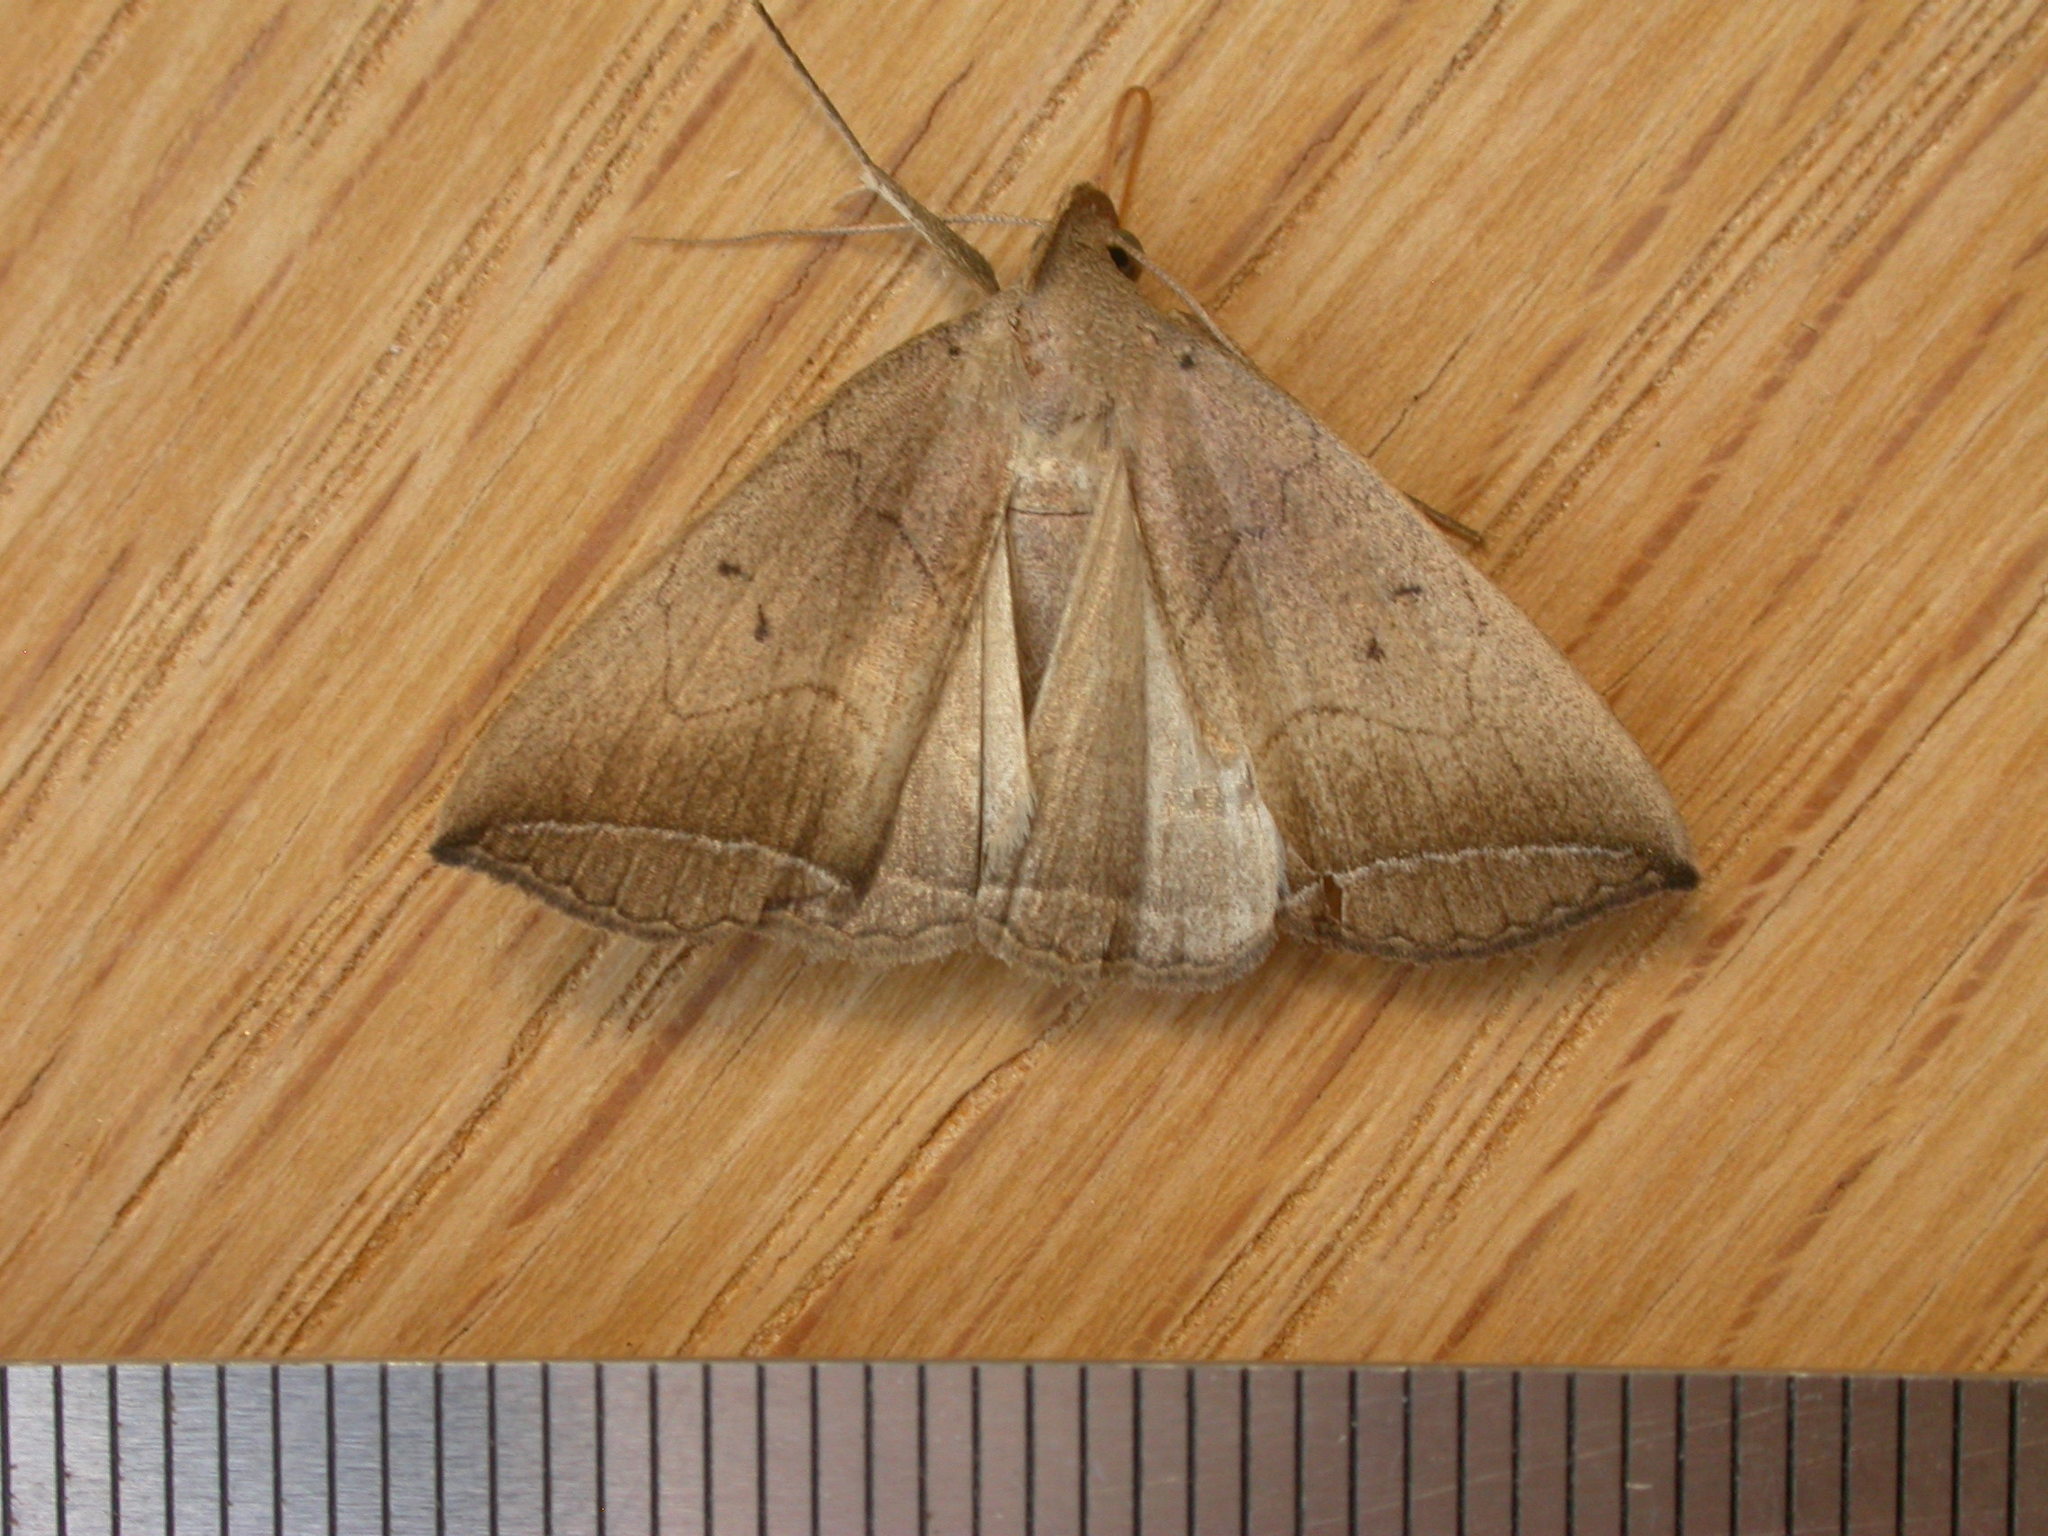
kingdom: Animalia
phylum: Arthropoda
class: Insecta
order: Lepidoptera
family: Erebidae
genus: Simplicia
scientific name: Simplicia armatalis
